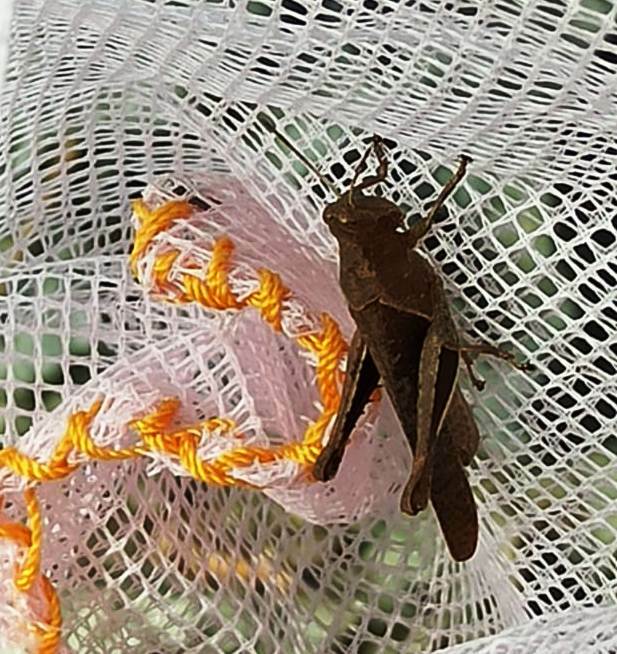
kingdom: Animalia
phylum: Arthropoda
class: Insecta
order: Orthoptera
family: Acrididae
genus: Abracris
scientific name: Abracris flavolineata
